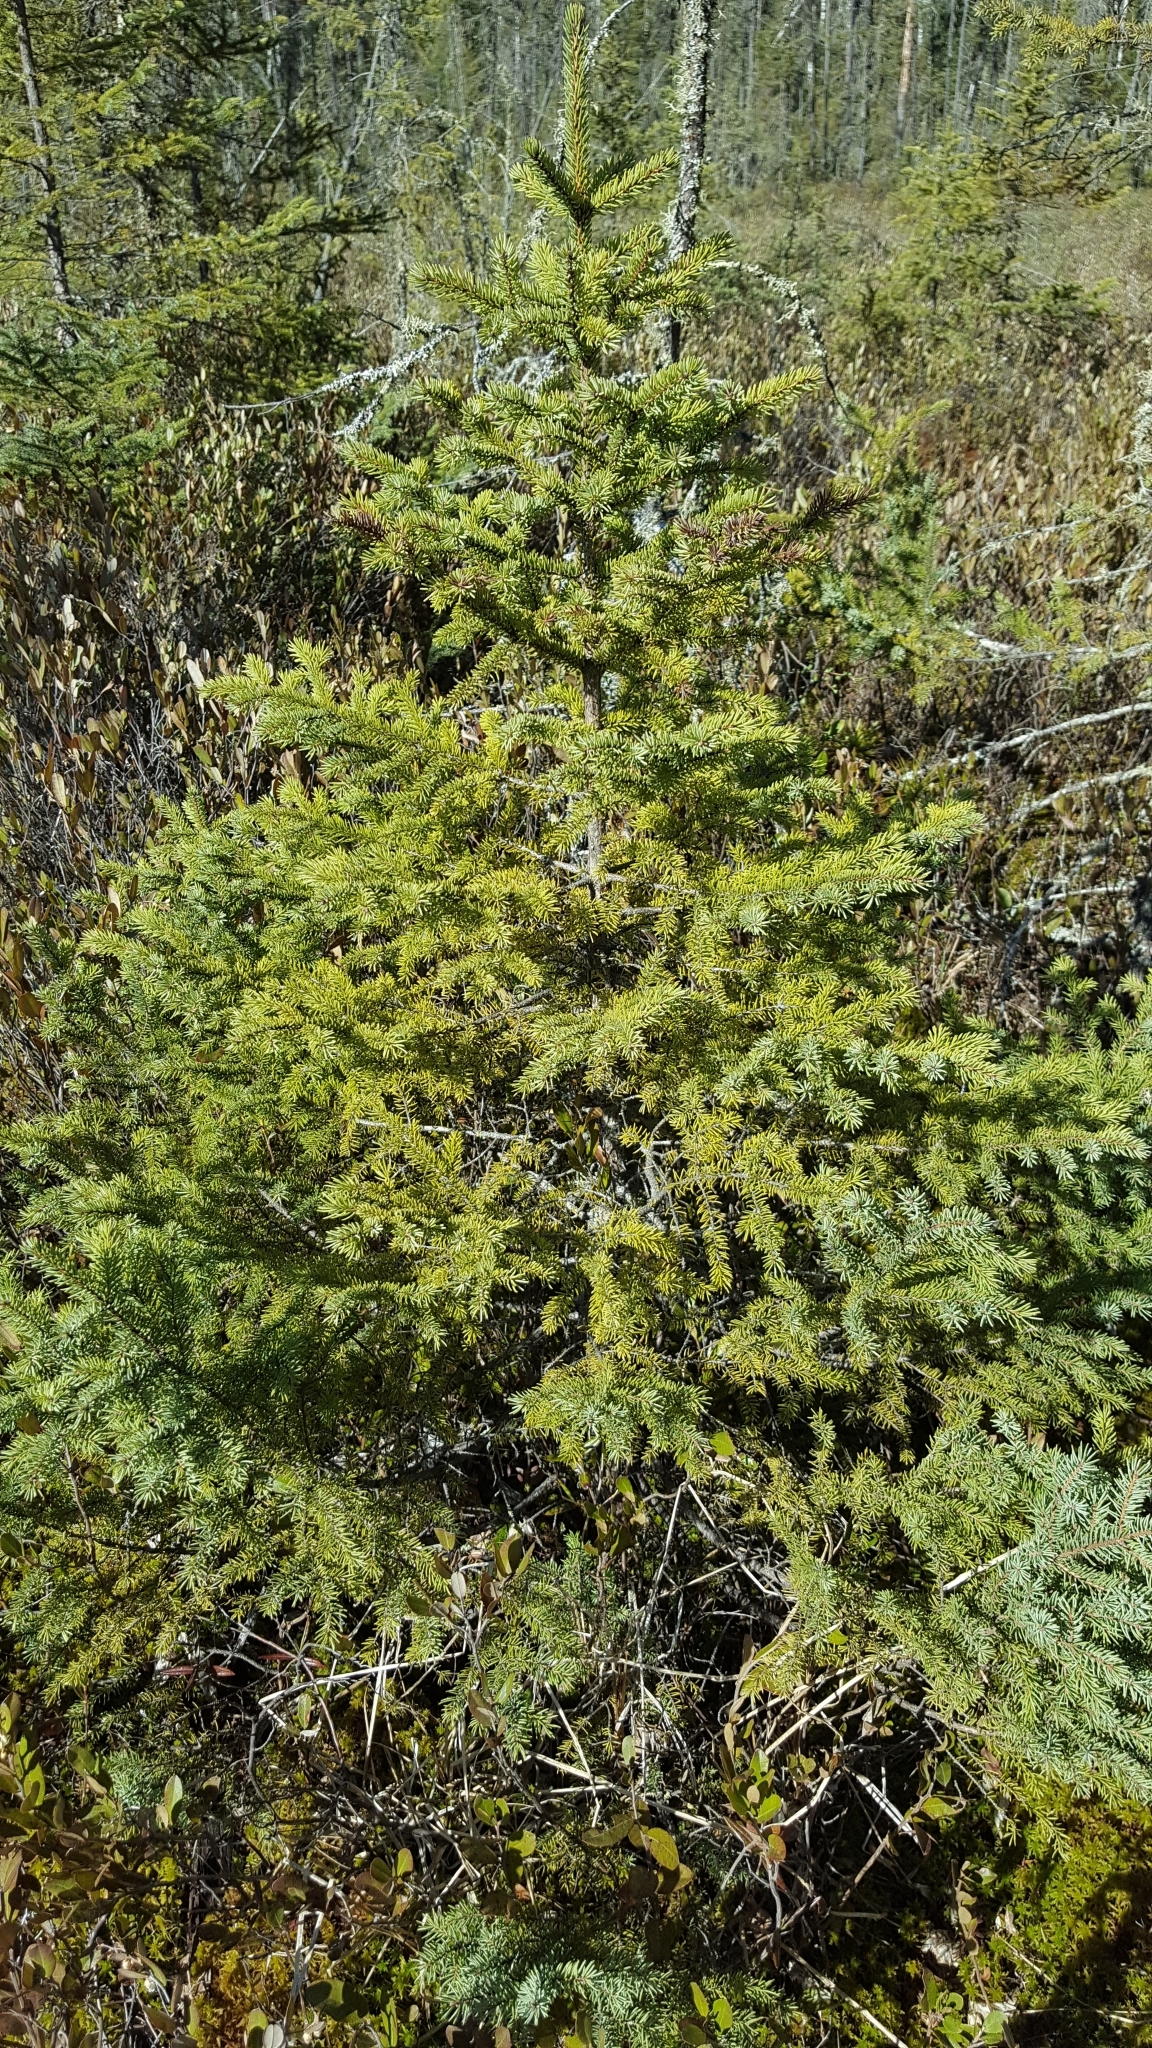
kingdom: Plantae
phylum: Tracheophyta
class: Pinopsida
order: Pinales
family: Pinaceae
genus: Picea
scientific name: Picea mariana
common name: Black spruce
